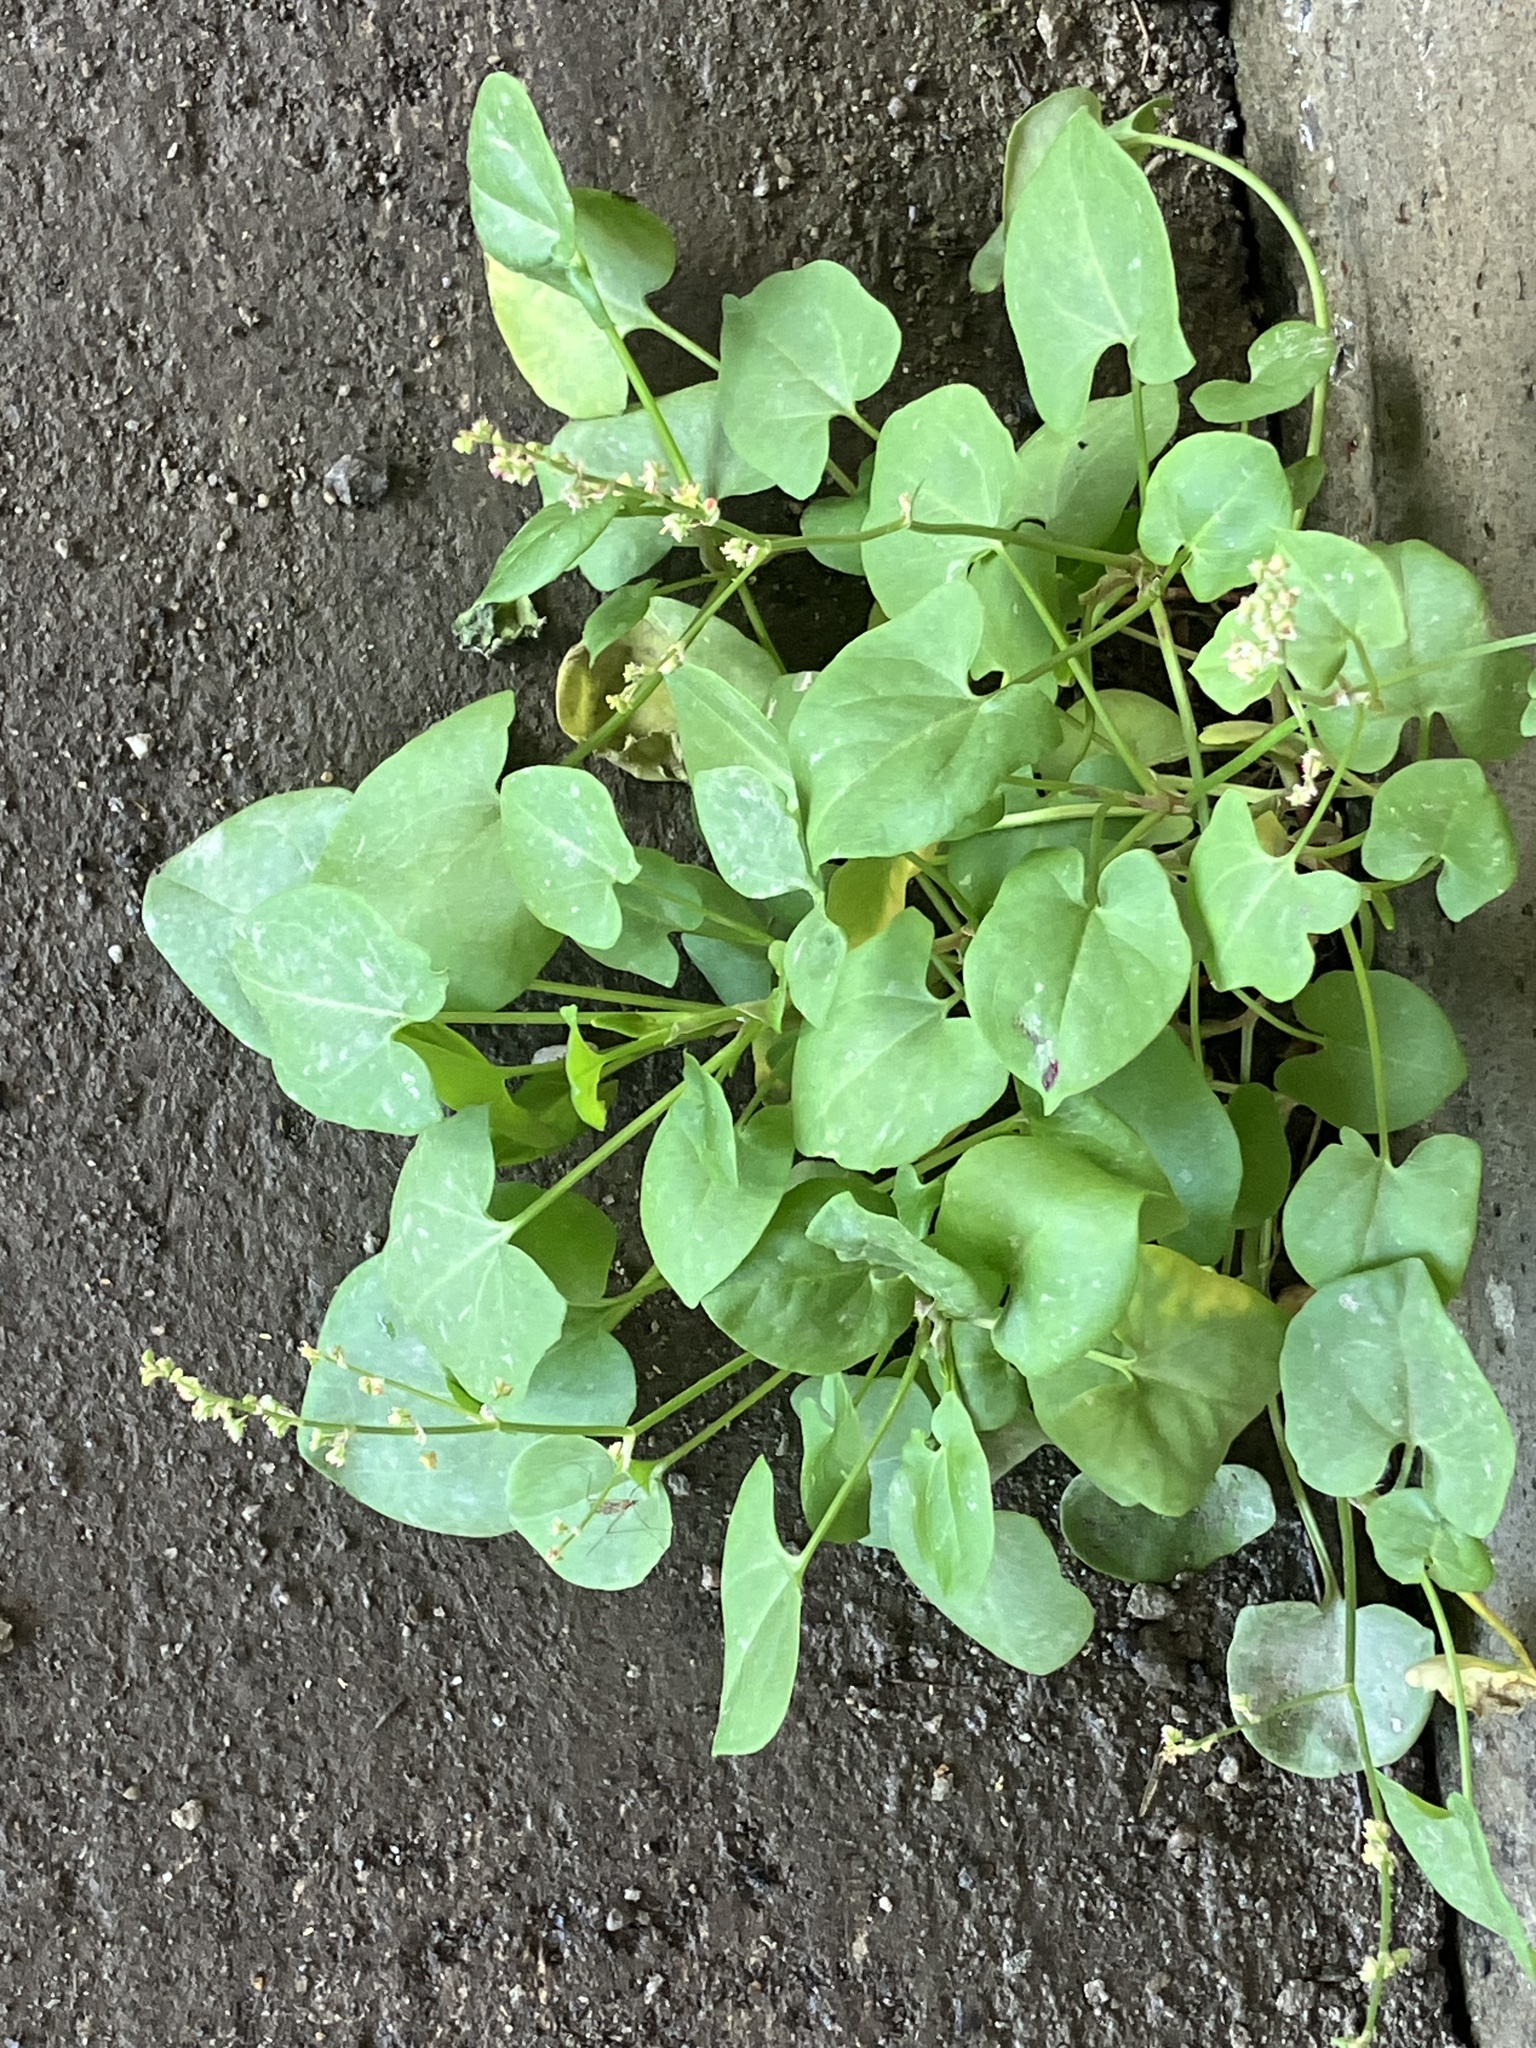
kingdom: Plantae
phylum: Tracheophyta
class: Magnoliopsida
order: Caryophyllales
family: Polygonaceae
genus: Rumex
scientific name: Rumex scutatus
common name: French sorrel
